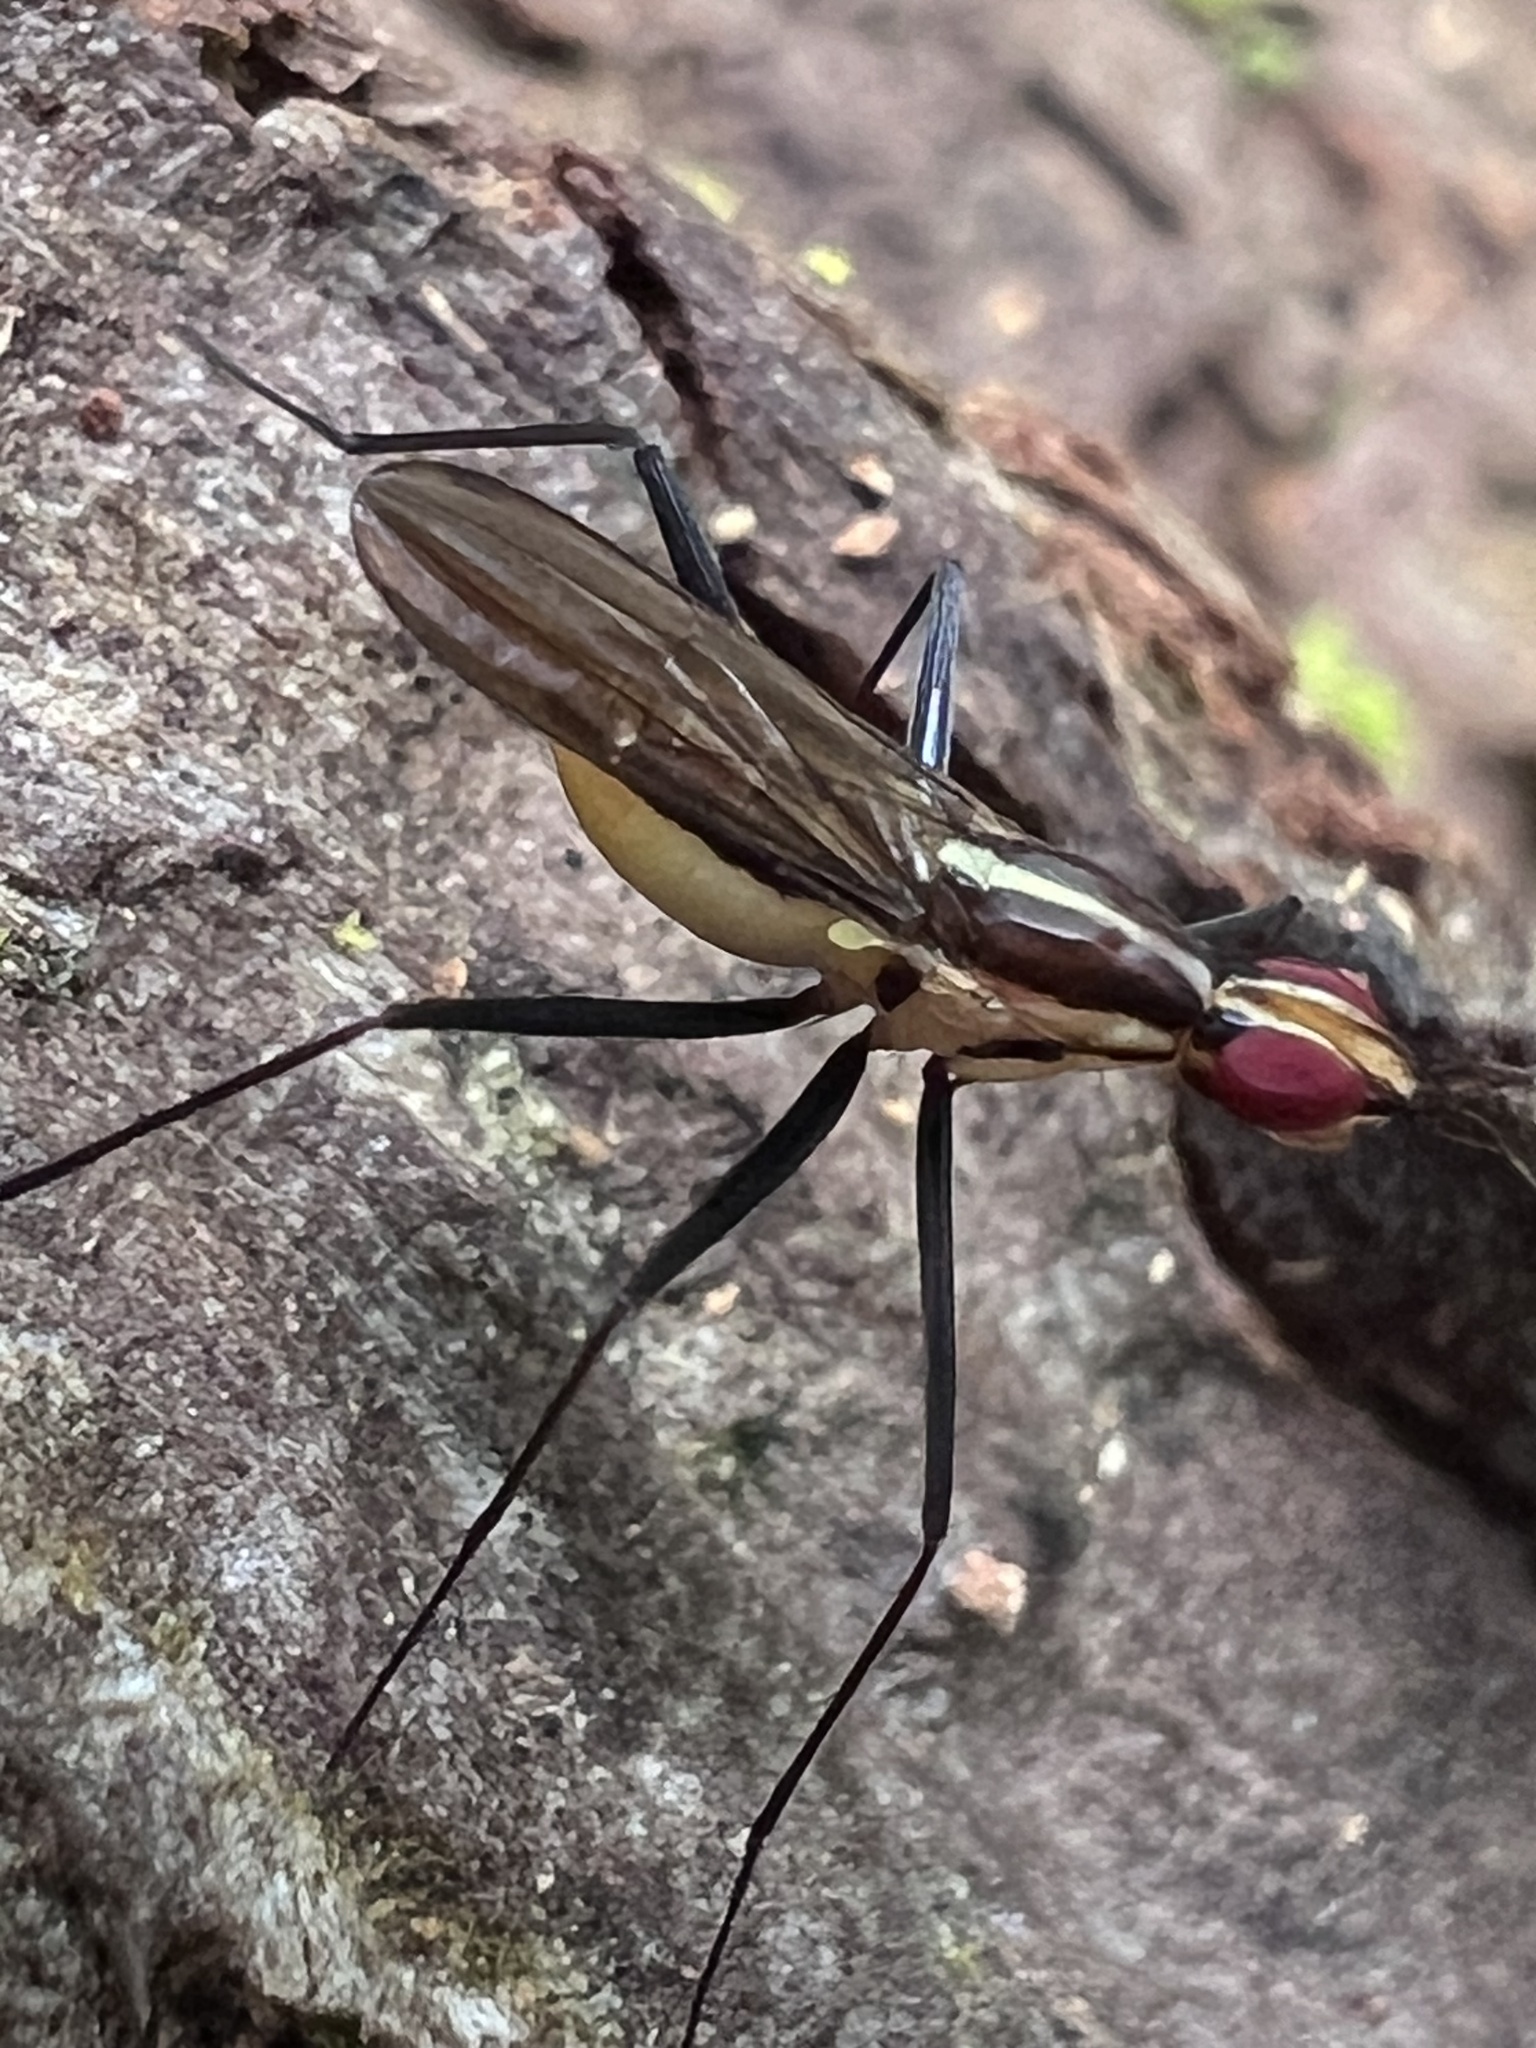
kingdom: Animalia
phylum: Arthropoda
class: Insecta
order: Diptera
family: Neriidae
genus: Telostylinus
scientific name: Telostylinus lineolatus
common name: Banana stalk fly
